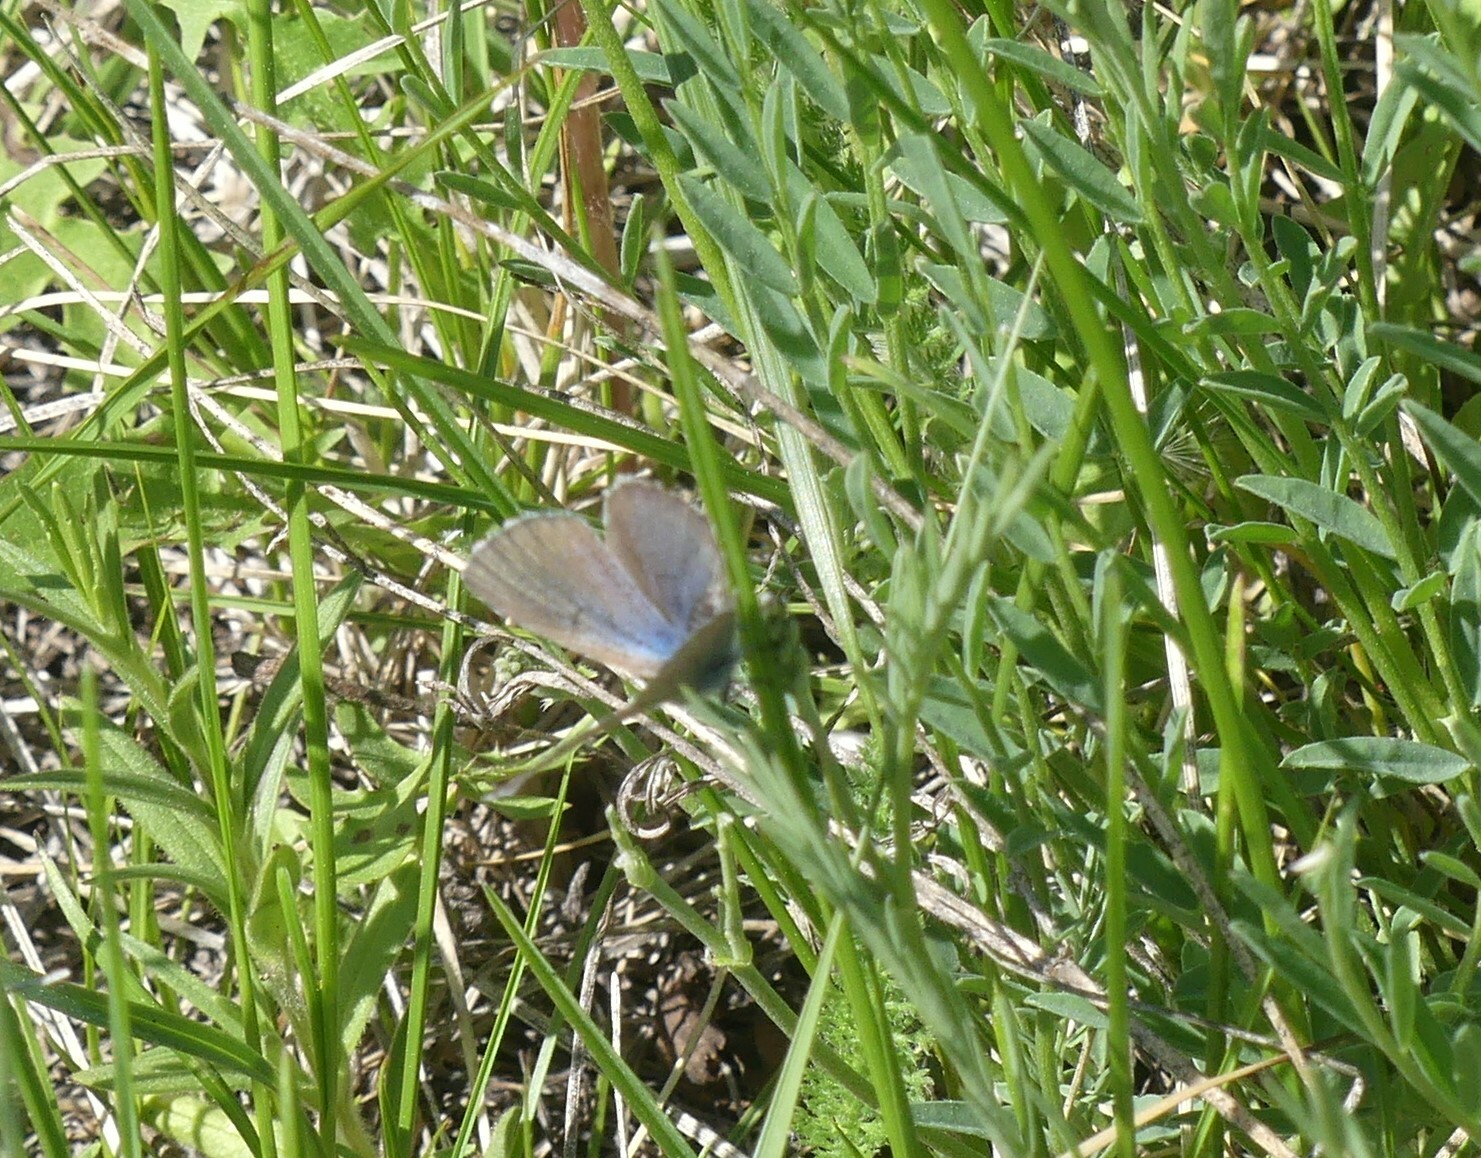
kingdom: Animalia
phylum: Arthropoda
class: Insecta
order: Lepidoptera
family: Lycaenidae
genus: Glaucopsyche
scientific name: Glaucopsyche lygdamus
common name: Silvery blue
